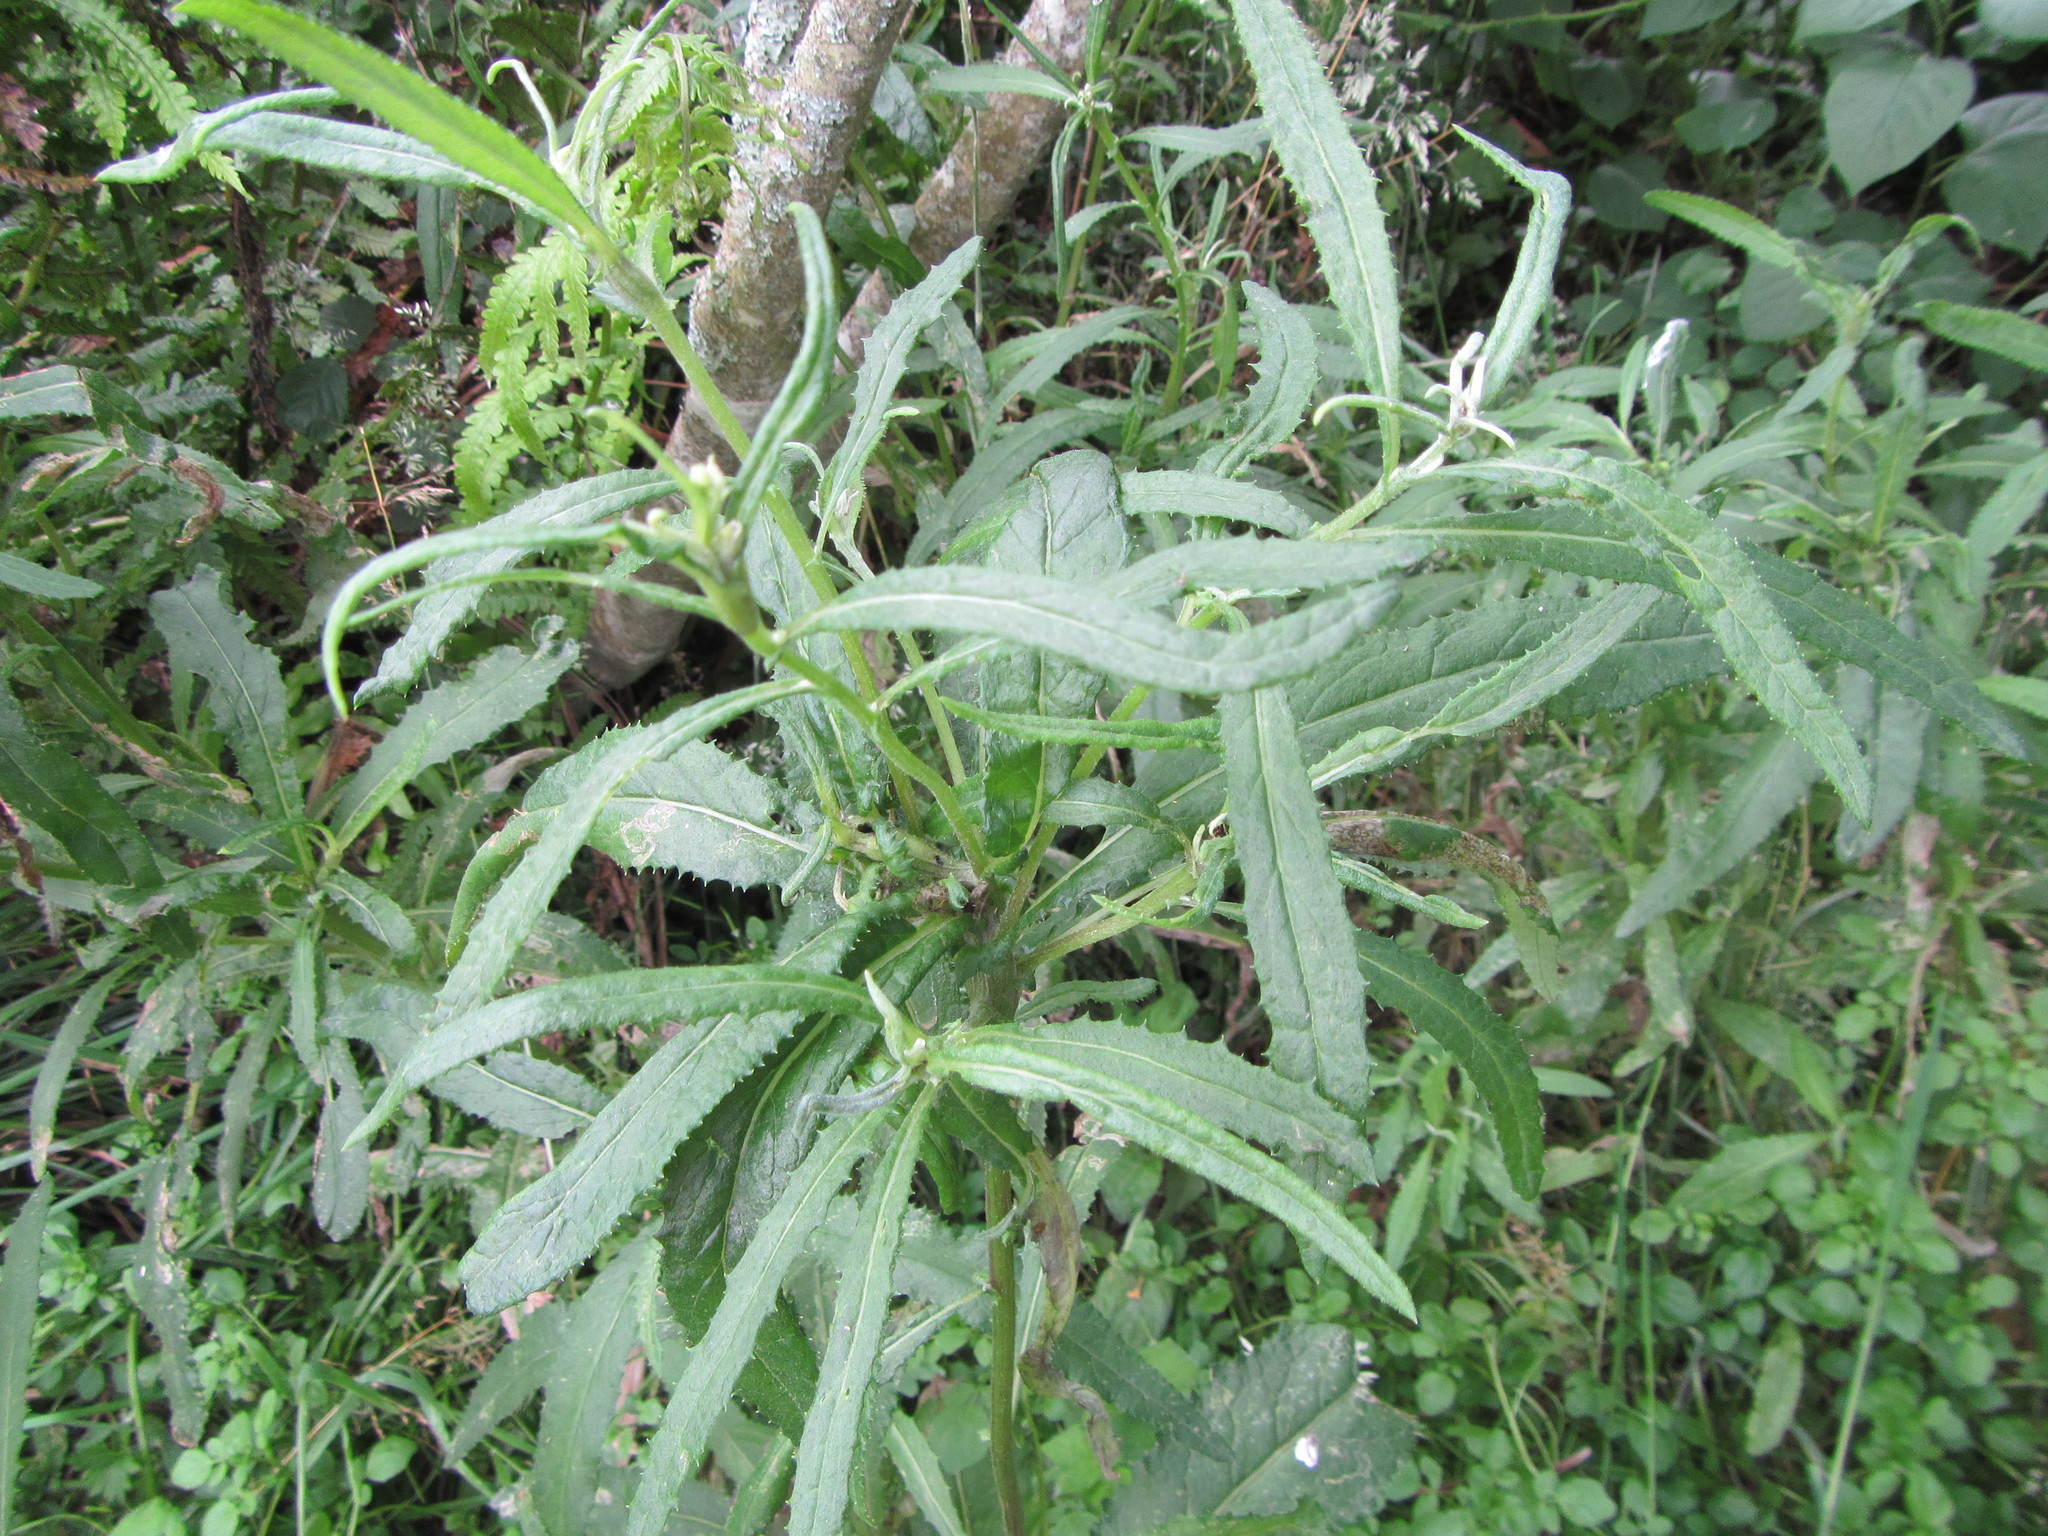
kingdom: Plantae
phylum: Tracheophyta
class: Magnoliopsida
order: Asterales
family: Asteraceae
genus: Senecio
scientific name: Senecio minimus
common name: Toothed fireweed
